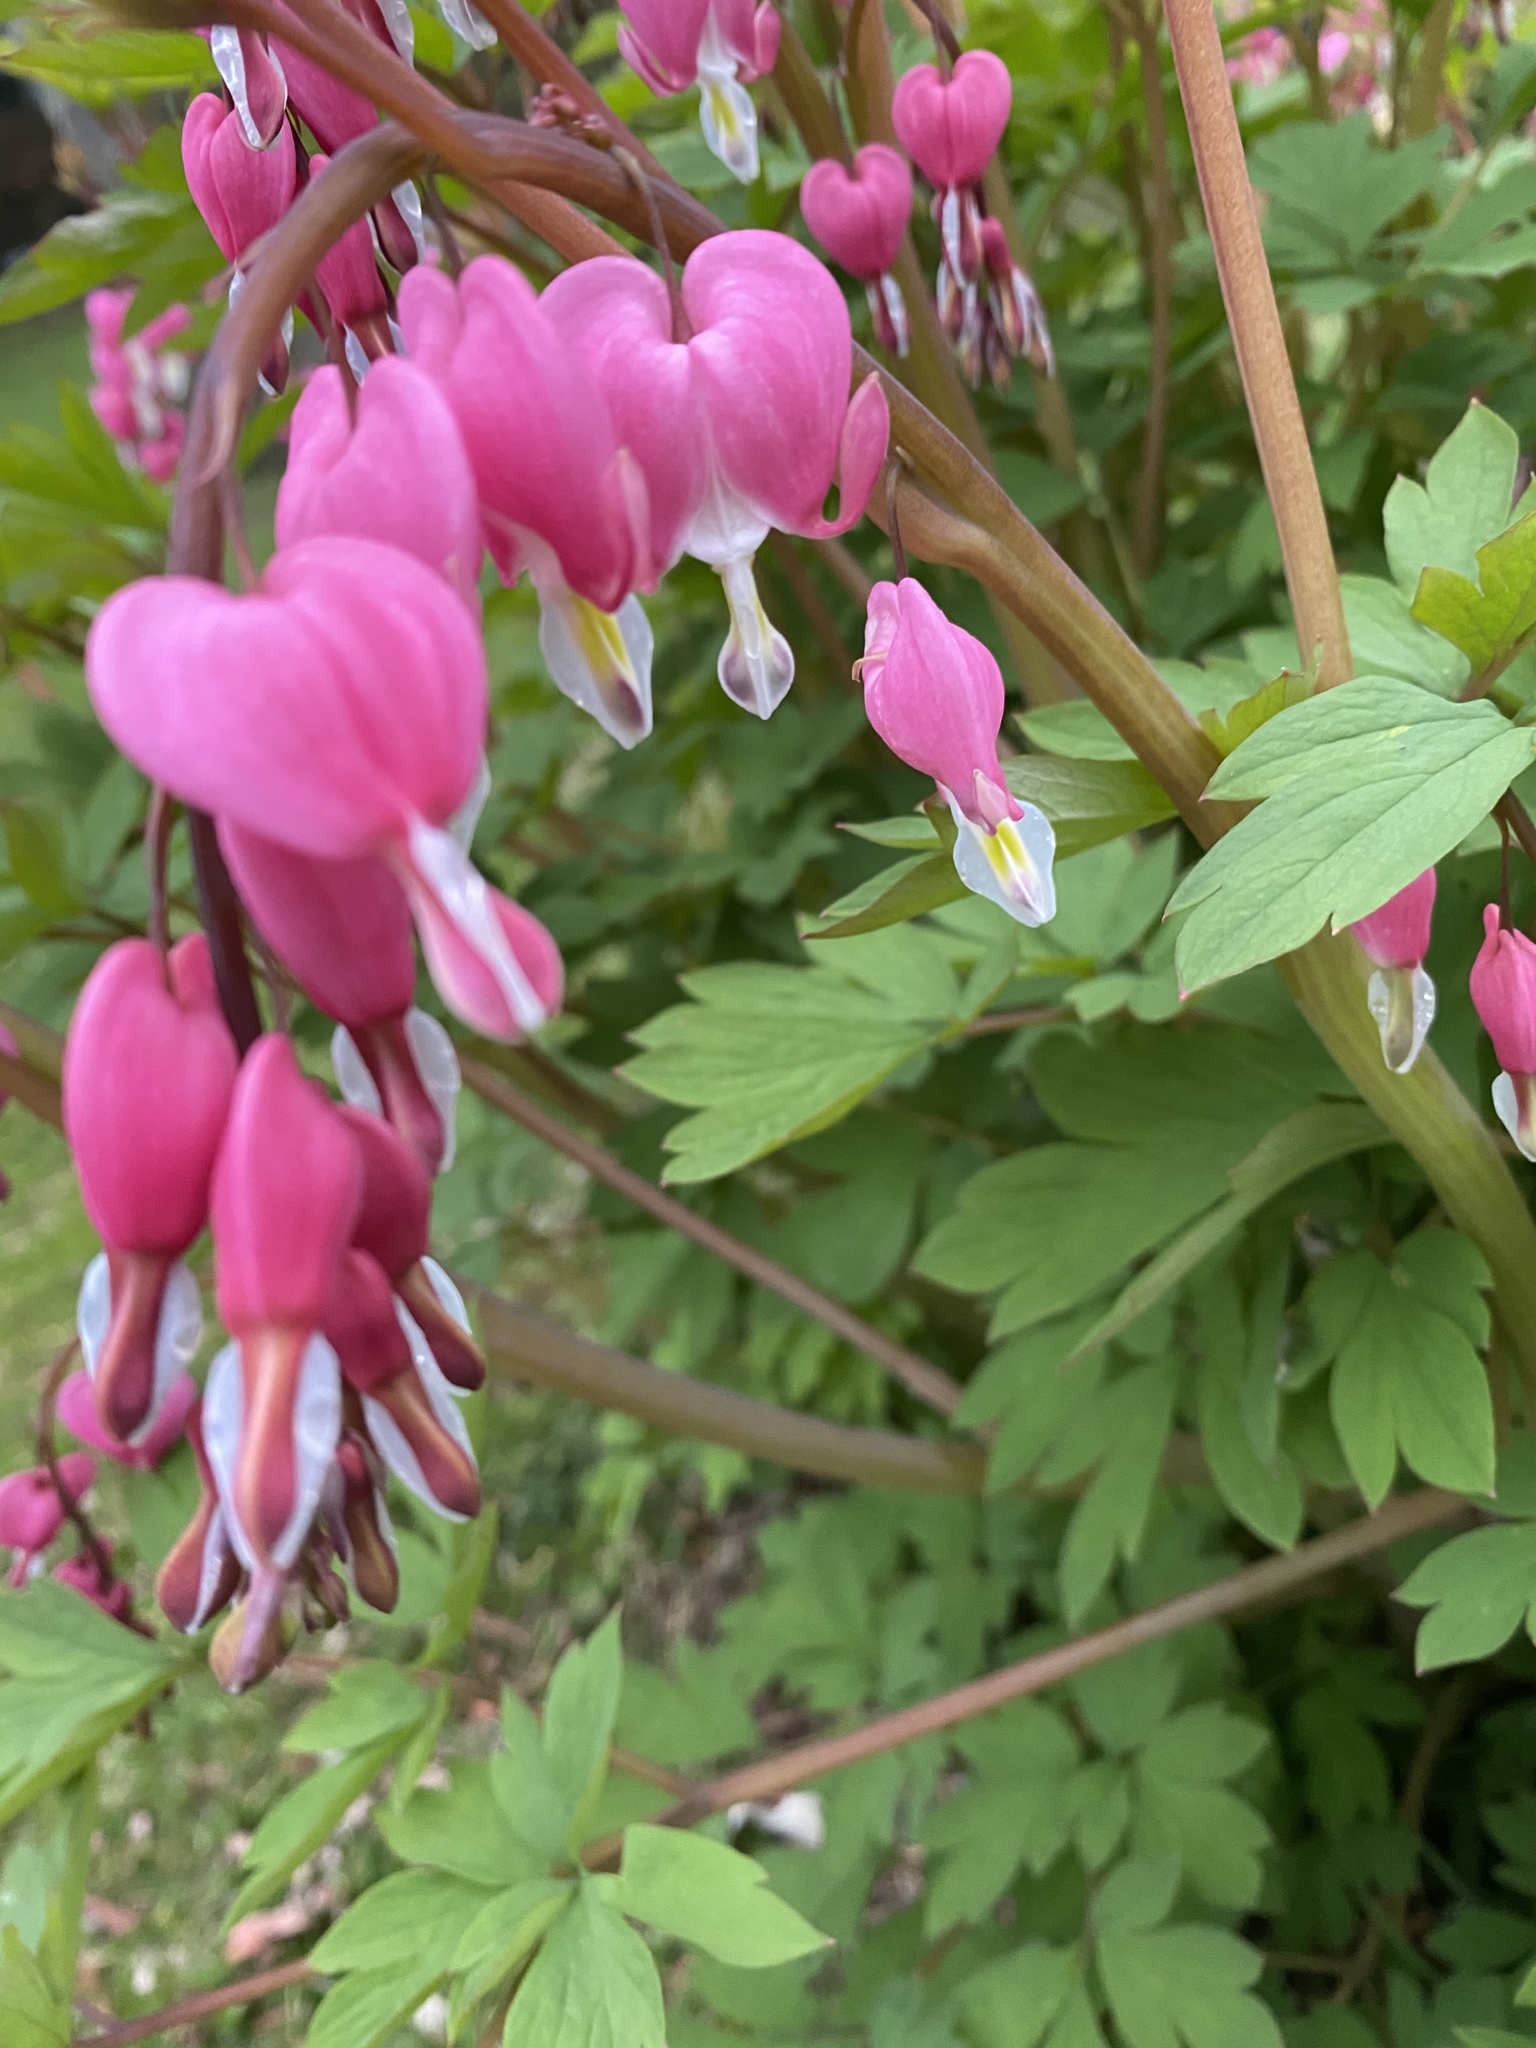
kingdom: Plantae
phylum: Tracheophyta
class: Magnoliopsida
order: Ranunculales
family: Papaveraceae
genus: Lamprocapnos
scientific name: Lamprocapnos spectabilis
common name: Asian bleeding-heart
